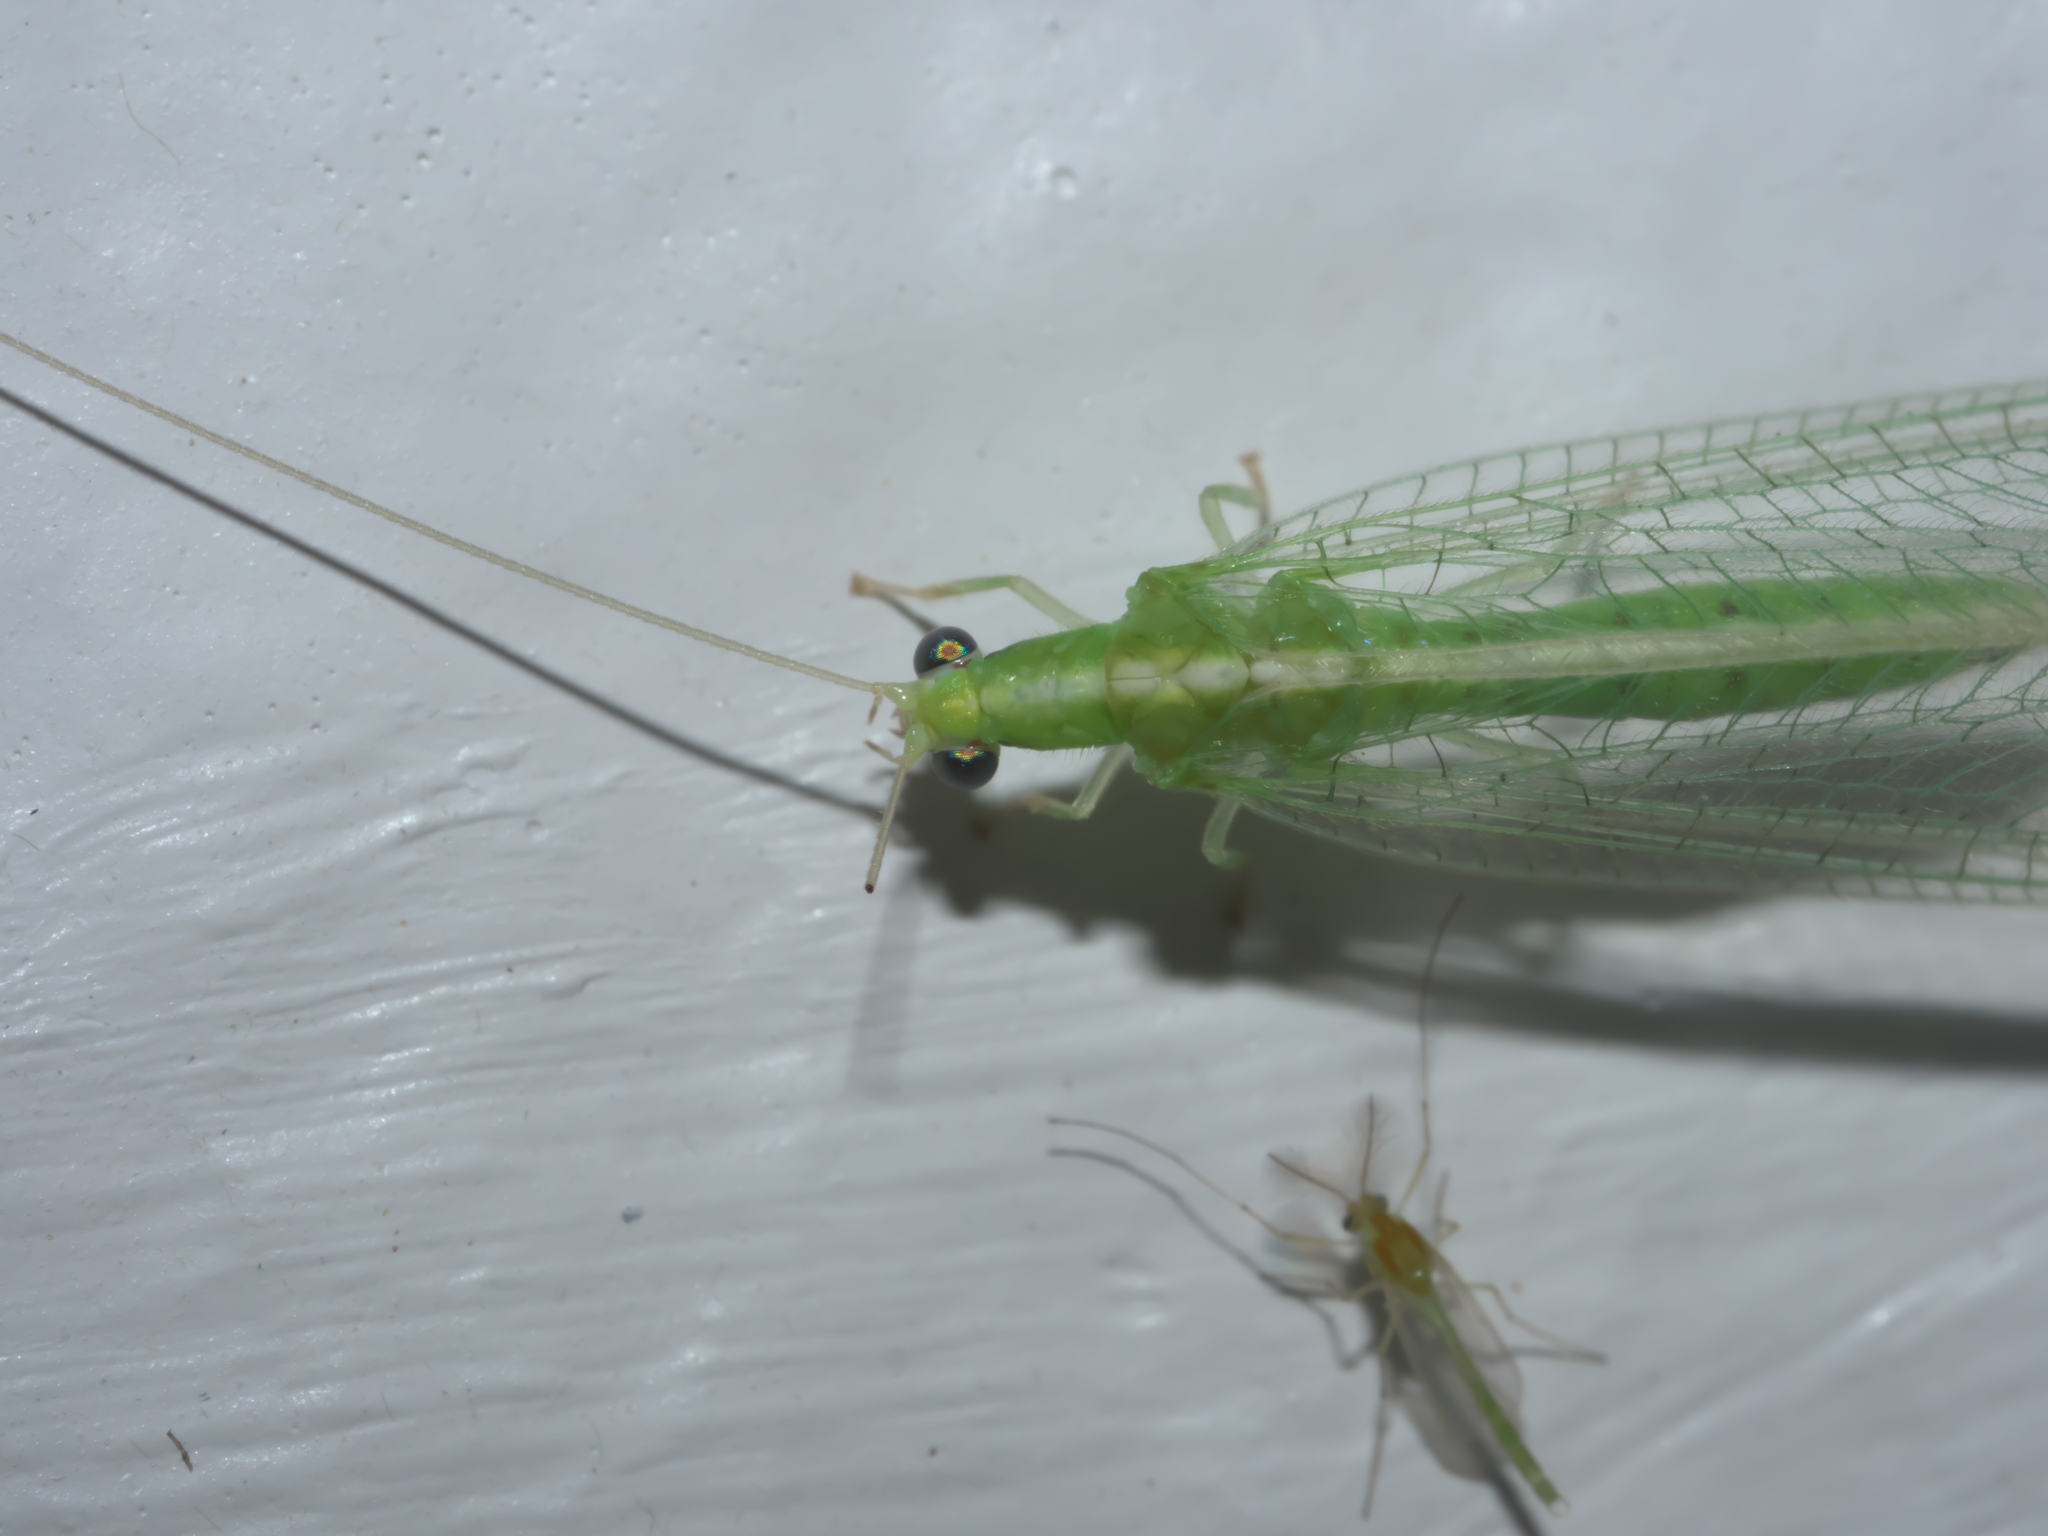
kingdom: Animalia
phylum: Arthropoda
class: Insecta
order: Neuroptera
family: Chrysopidae
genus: Chrysoperla
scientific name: Chrysoperla rufilabris
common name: Red-lipped green lacewing
